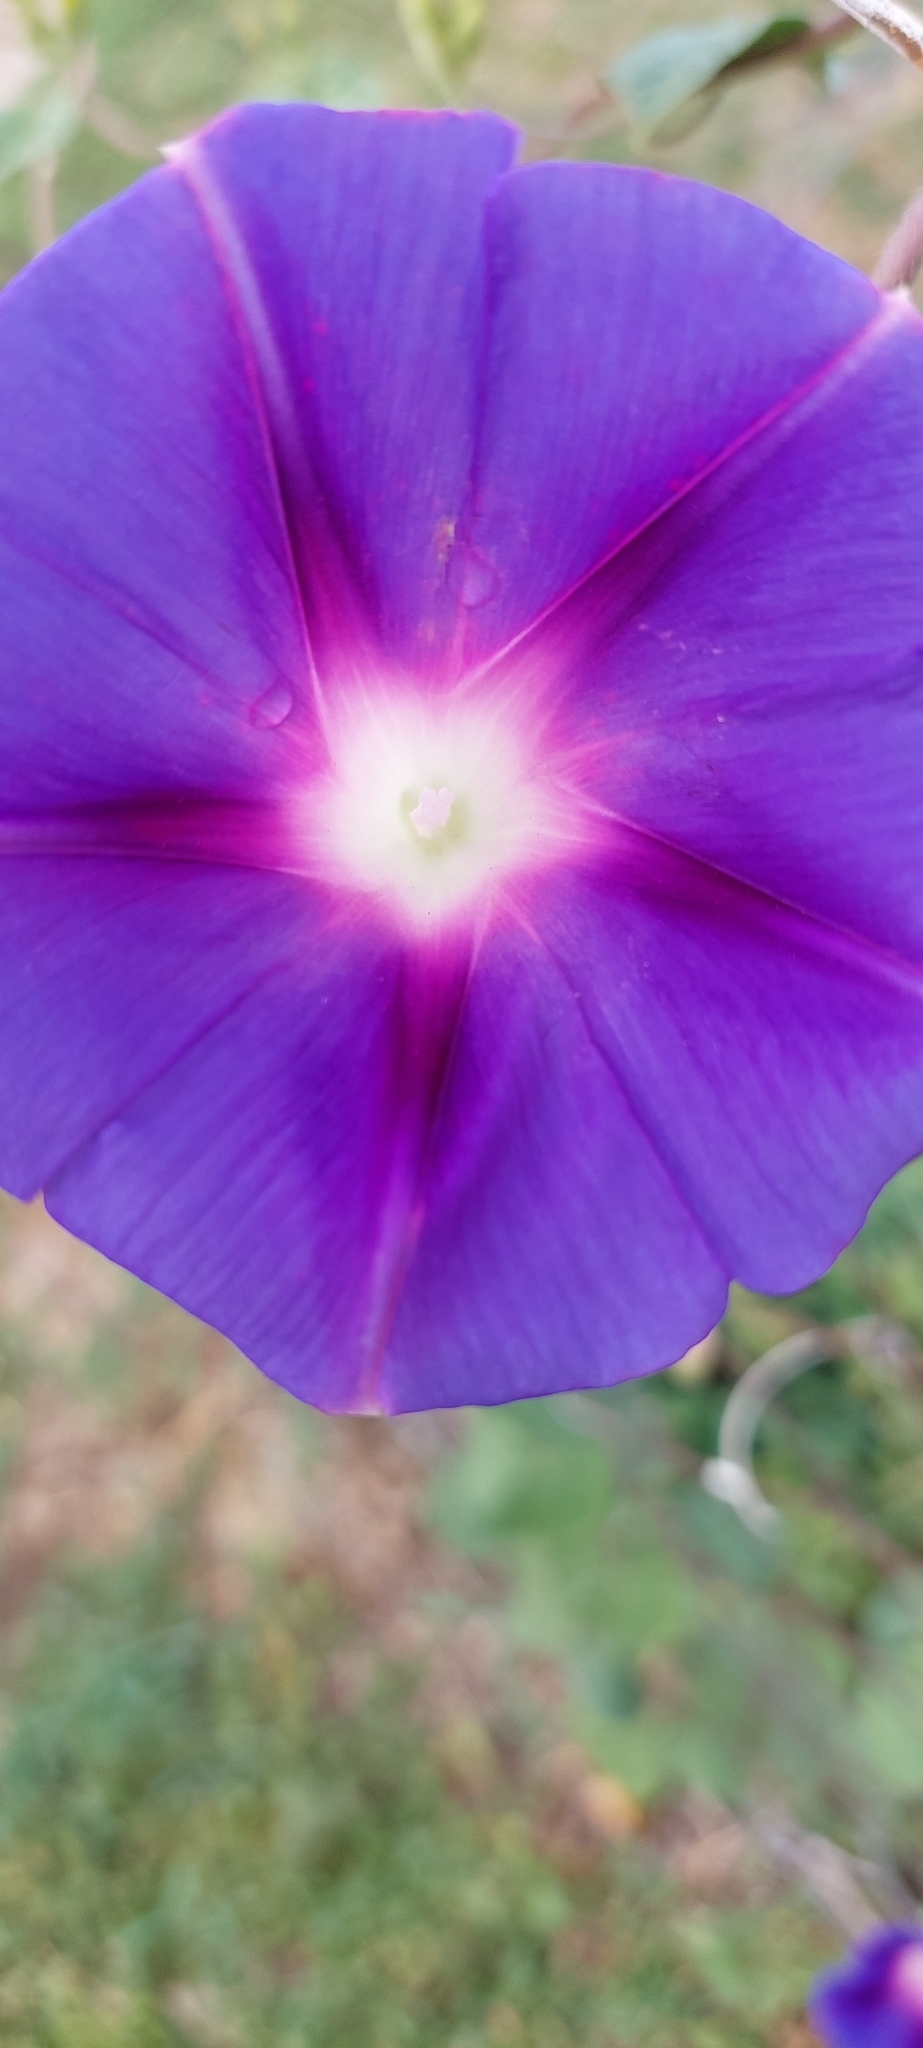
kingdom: Plantae
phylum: Tracheophyta
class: Magnoliopsida
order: Solanales
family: Convolvulaceae
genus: Ipomoea
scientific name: Ipomoea purpurea
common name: Common morning-glory
